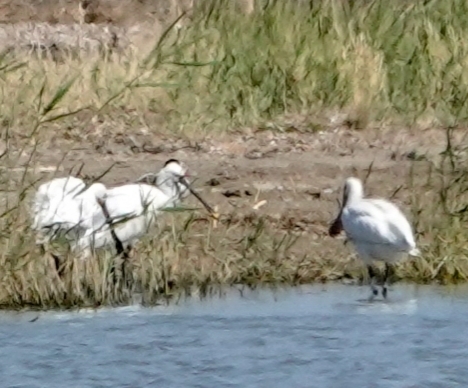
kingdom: Animalia
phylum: Chordata
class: Aves
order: Pelecaniformes
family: Threskiornithidae
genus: Platalea
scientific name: Platalea leucorodia
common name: Eurasian spoonbill
